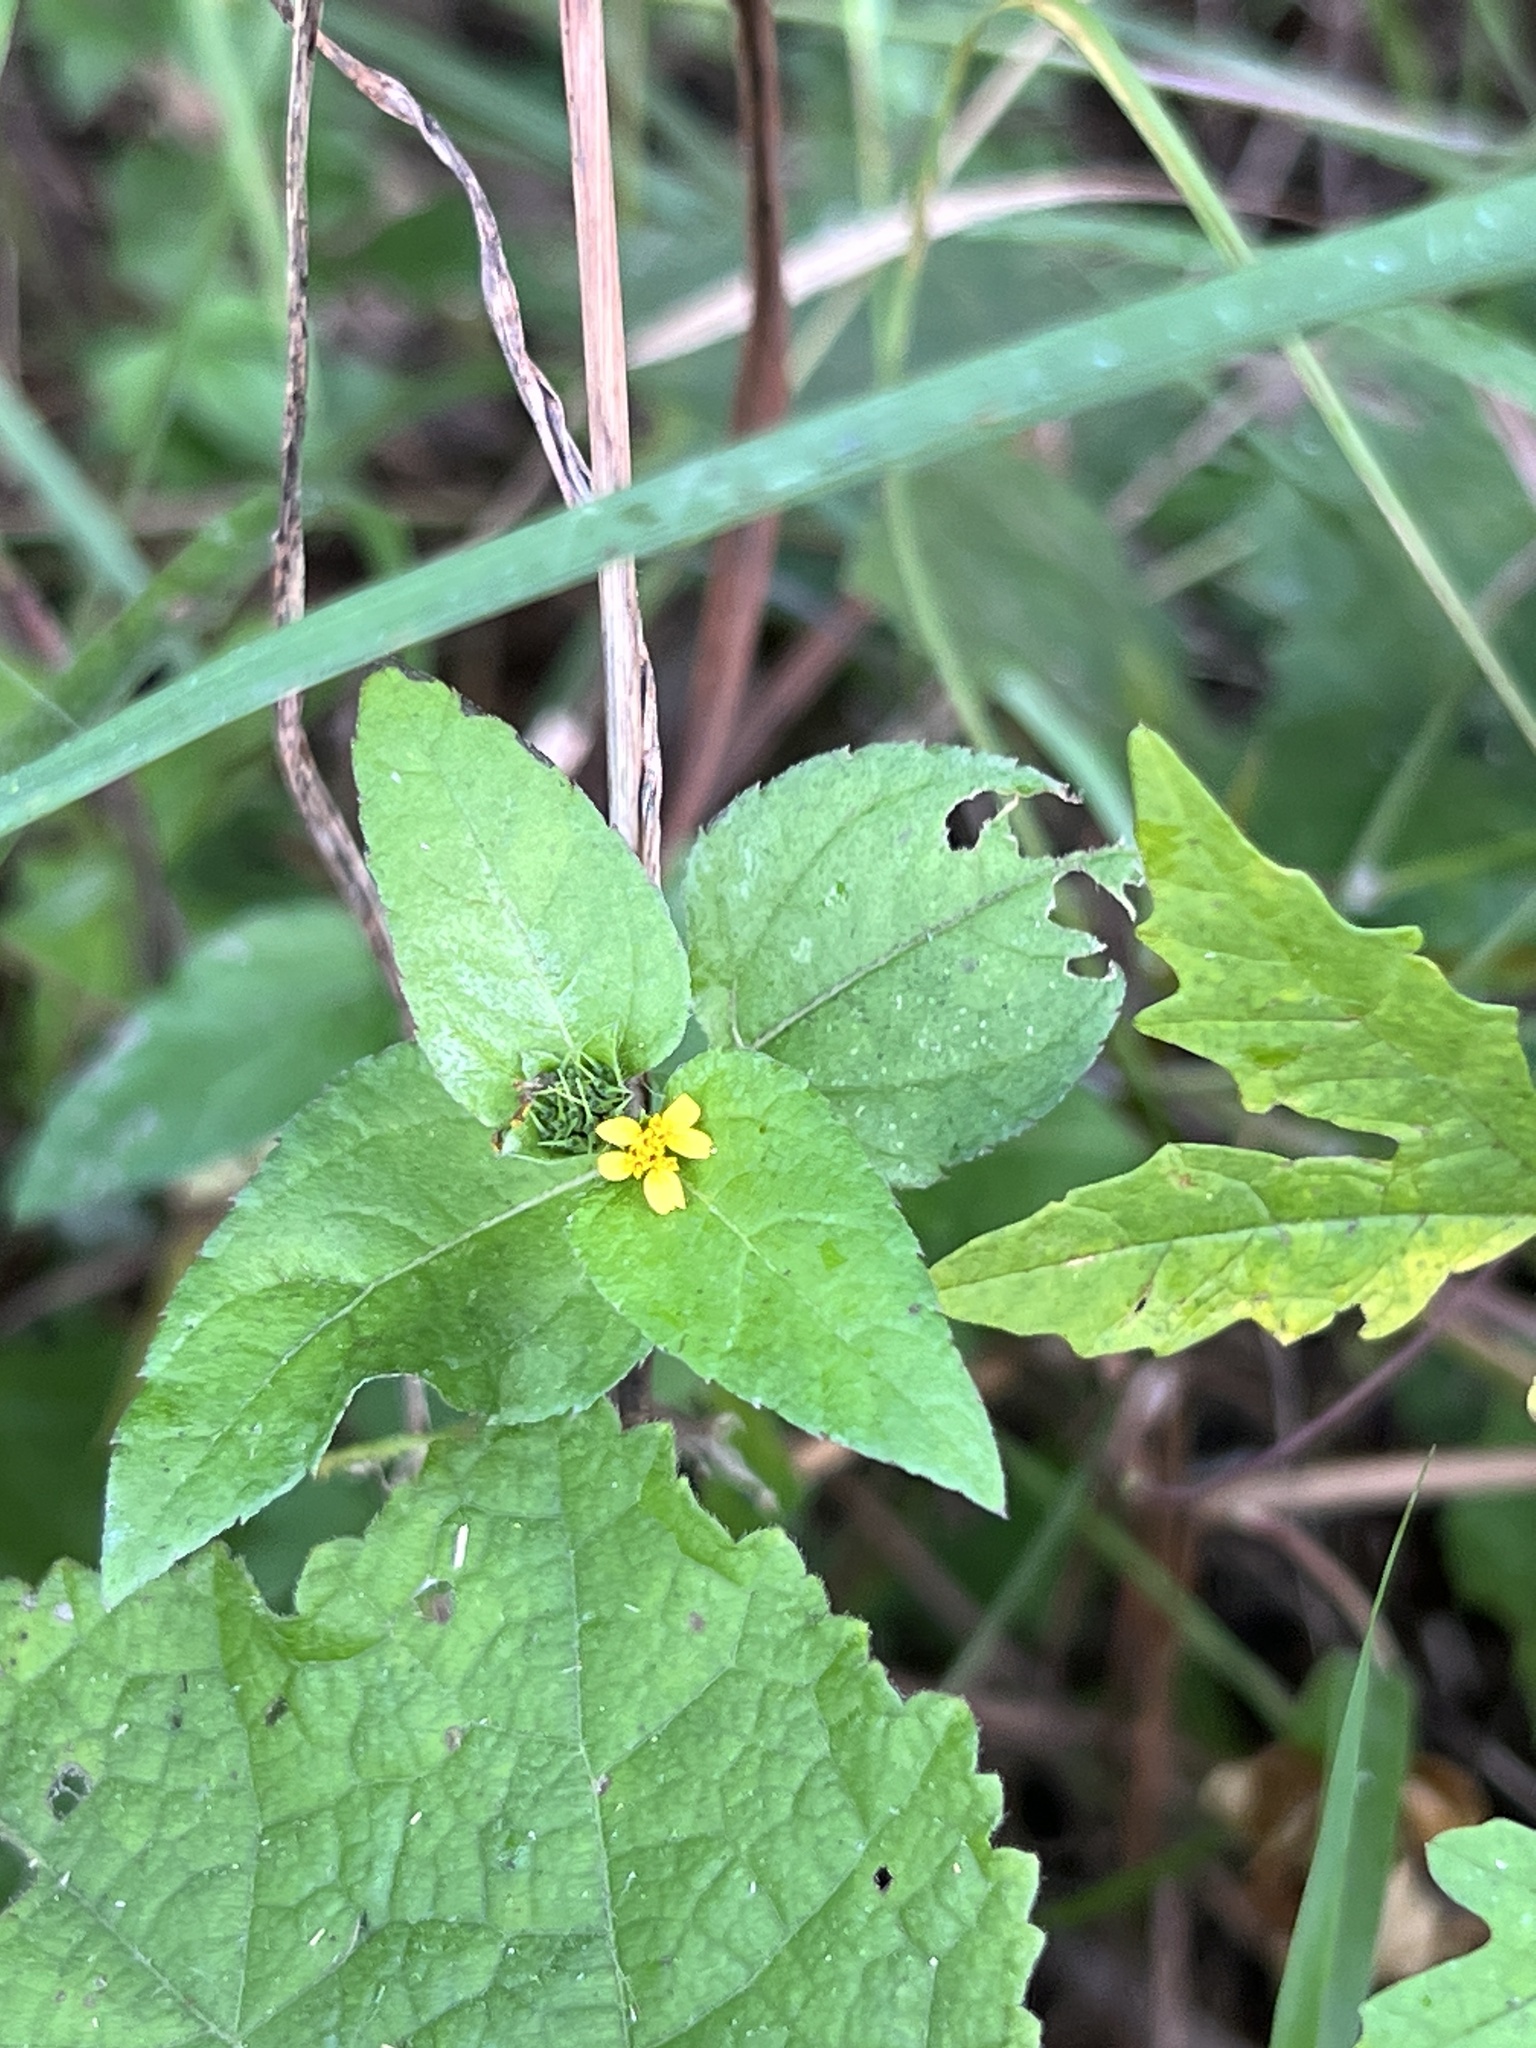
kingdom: Plantae
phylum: Tracheophyta
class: Magnoliopsida
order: Asterales
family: Asteraceae
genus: Calyptocarpus
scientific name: Calyptocarpus vialis
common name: Straggler daisy
